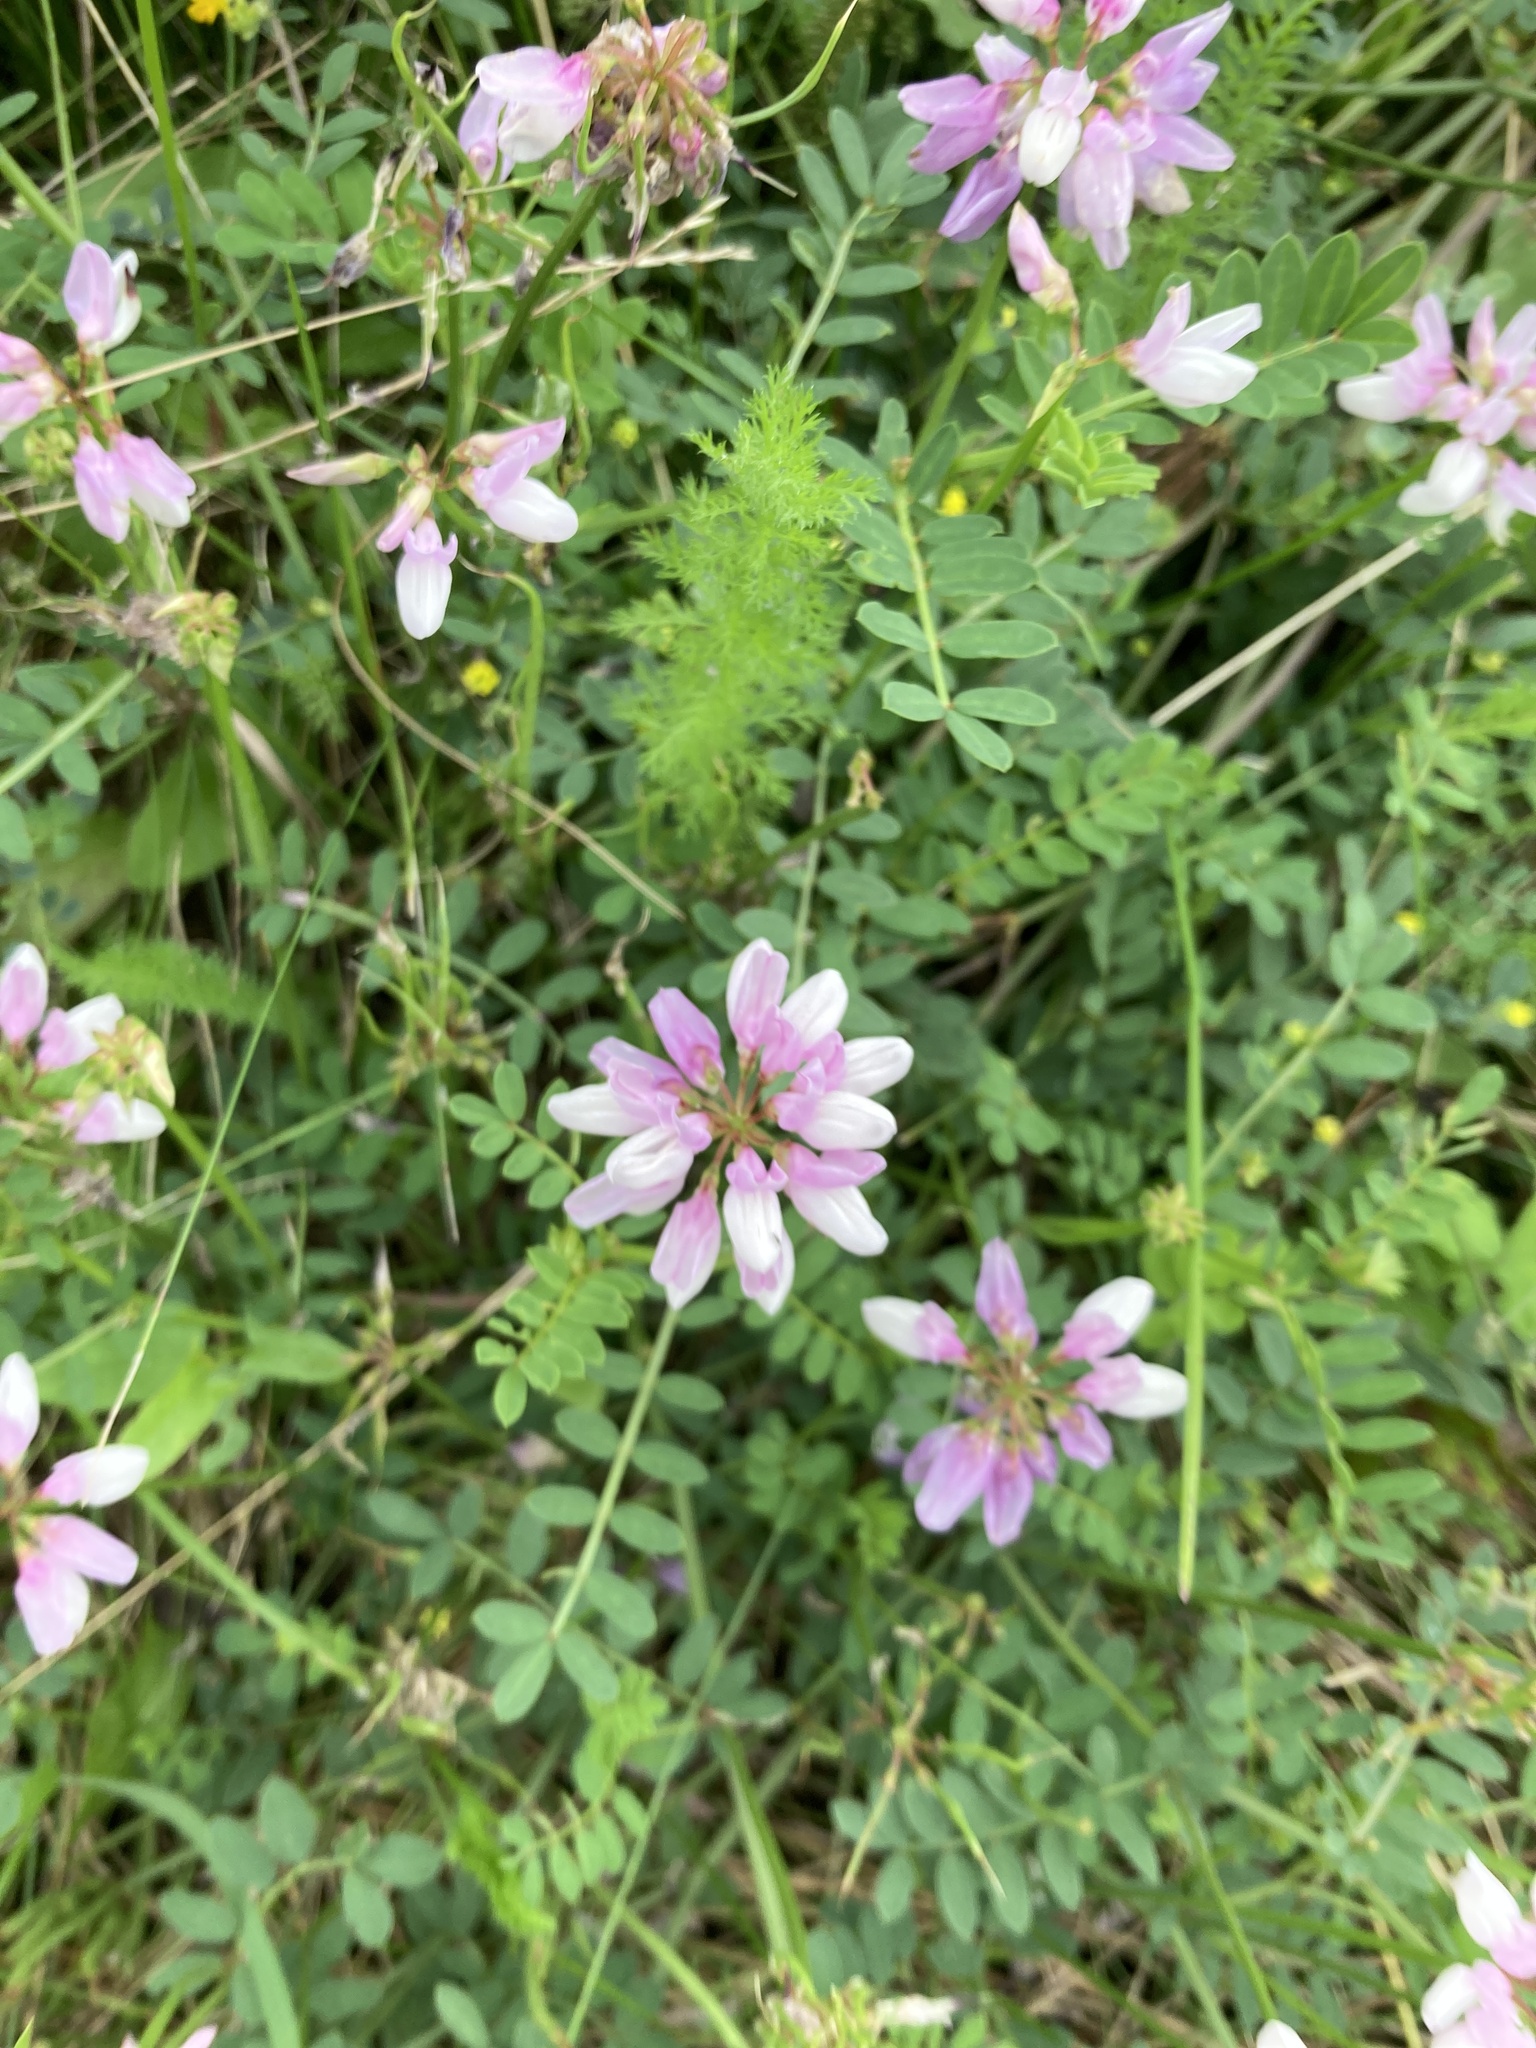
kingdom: Plantae
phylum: Tracheophyta
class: Magnoliopsida
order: Fabales
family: Fabaceae
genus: Coronilla
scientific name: Coronilla varia
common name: Crownvetch
